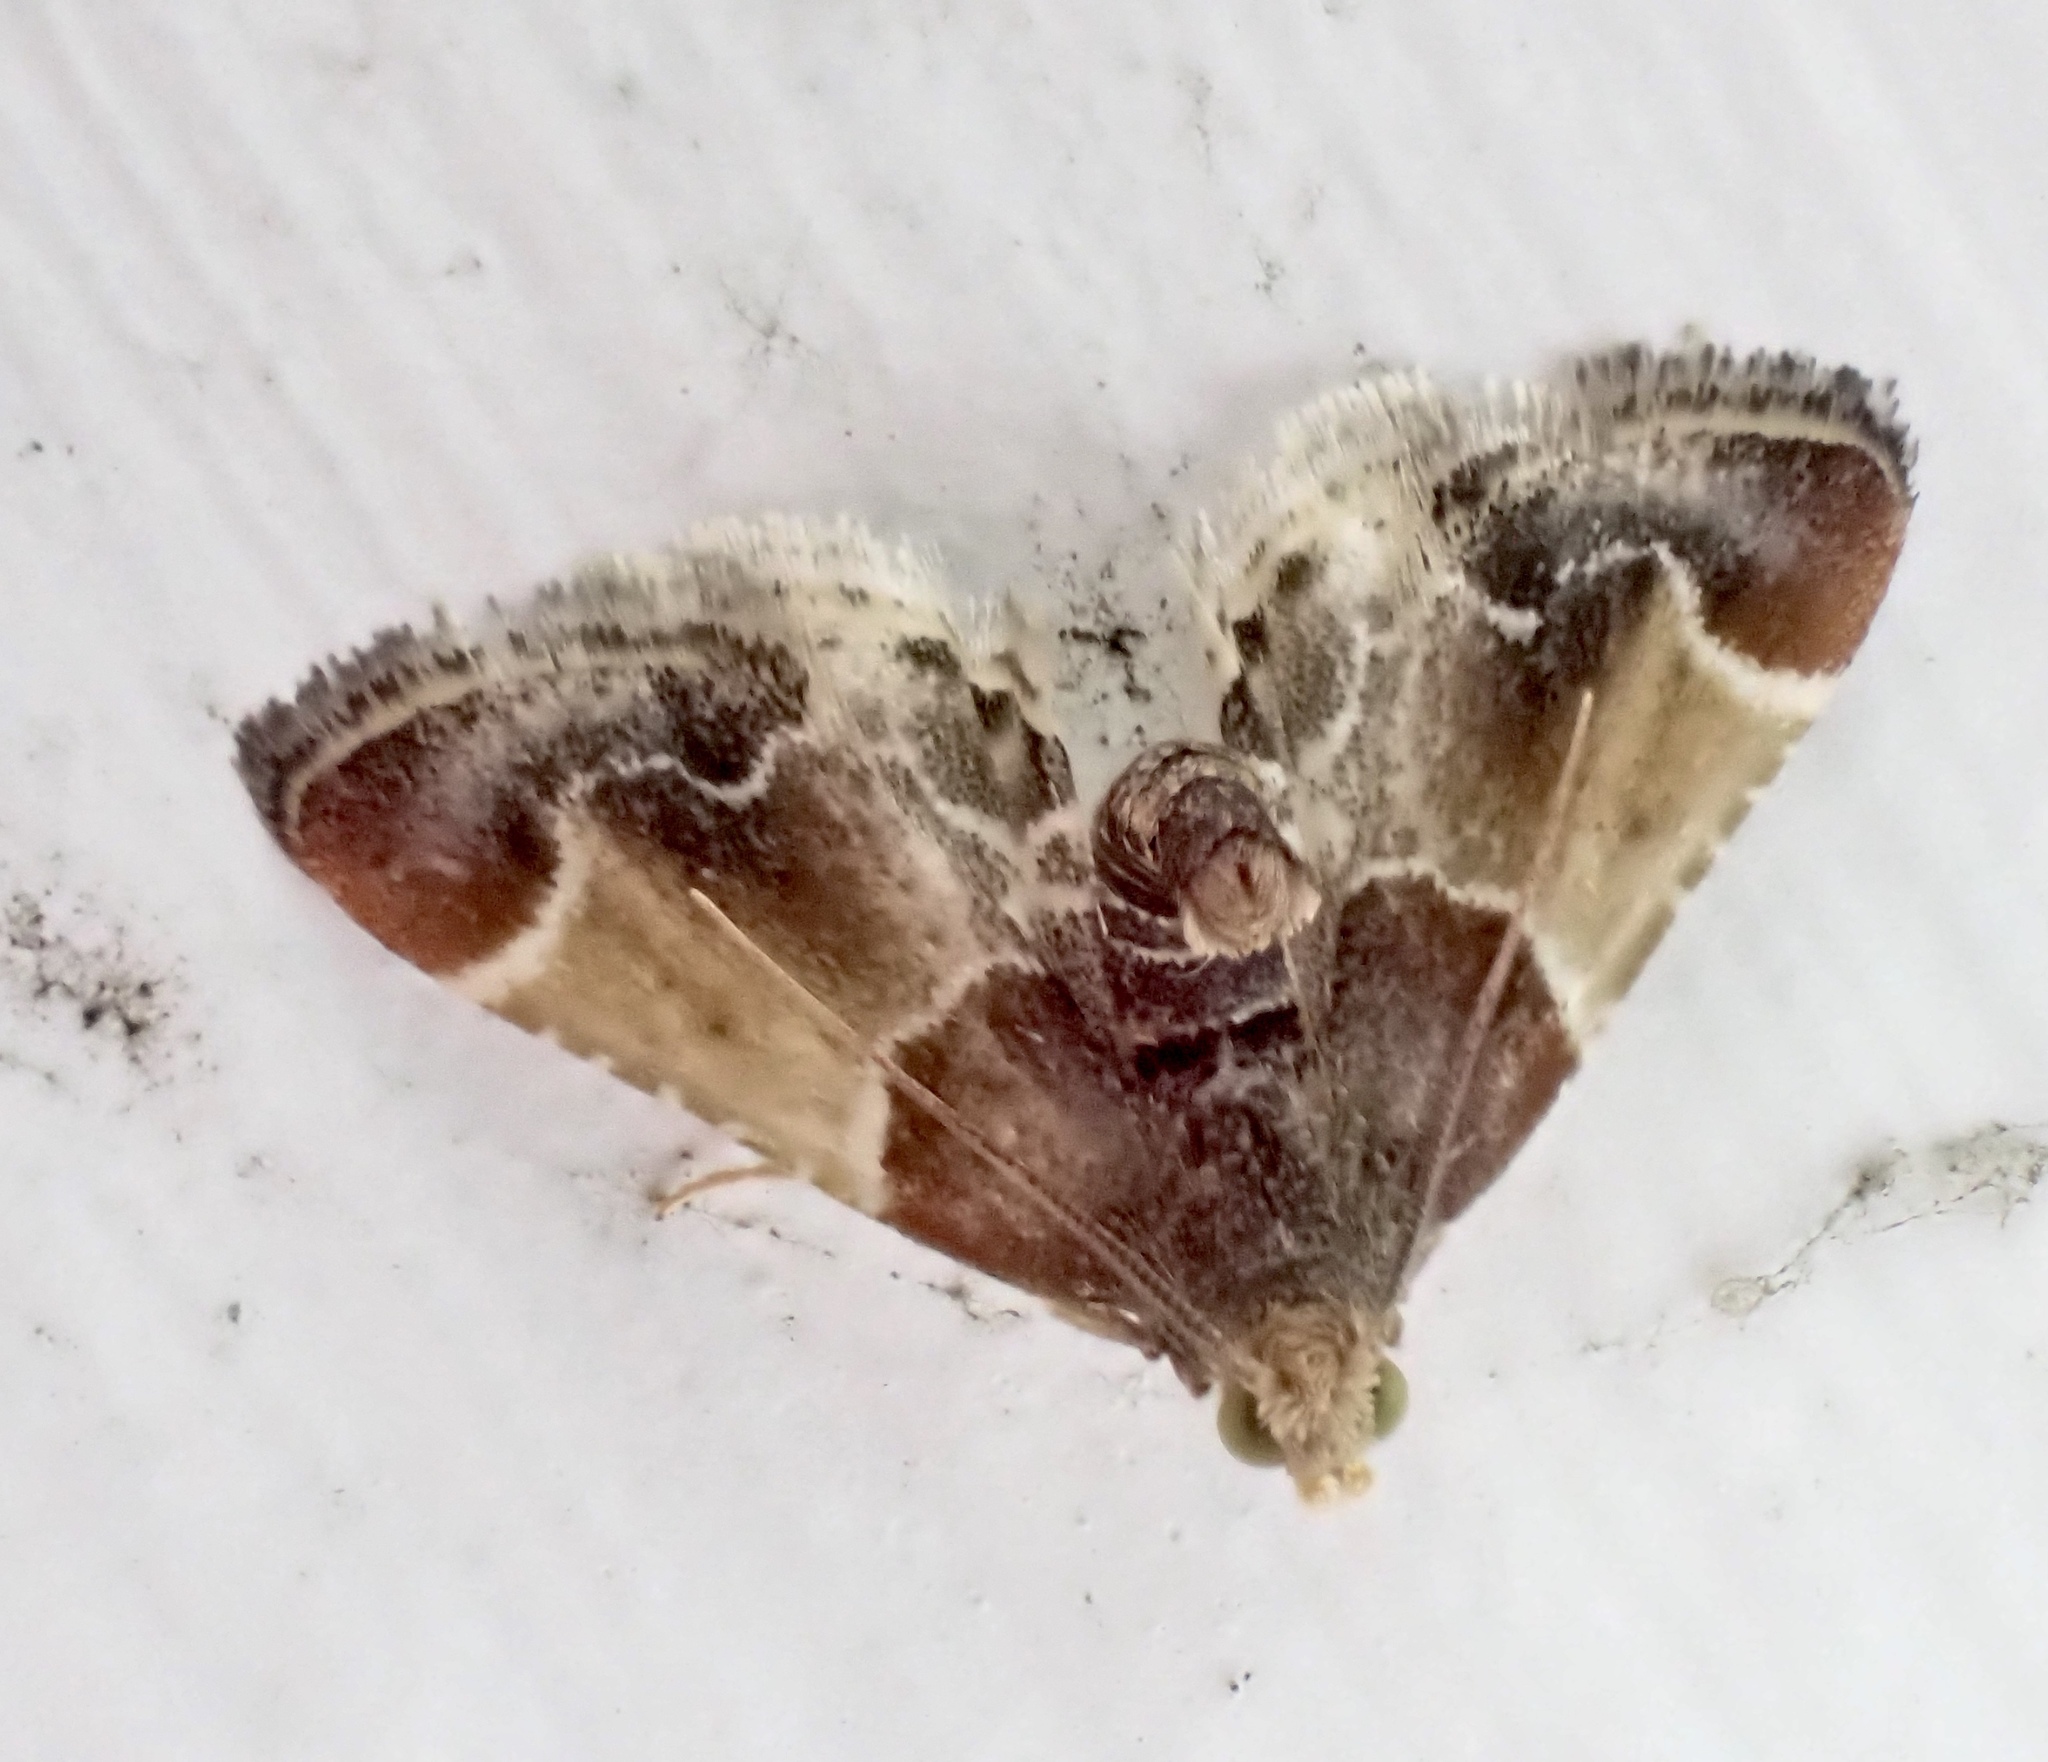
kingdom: Animalia
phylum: Arthropoda
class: Insecta
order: Lepidoptera
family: Pyralidae
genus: Pyralis
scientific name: Pyralis farinalis
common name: Meal moth
